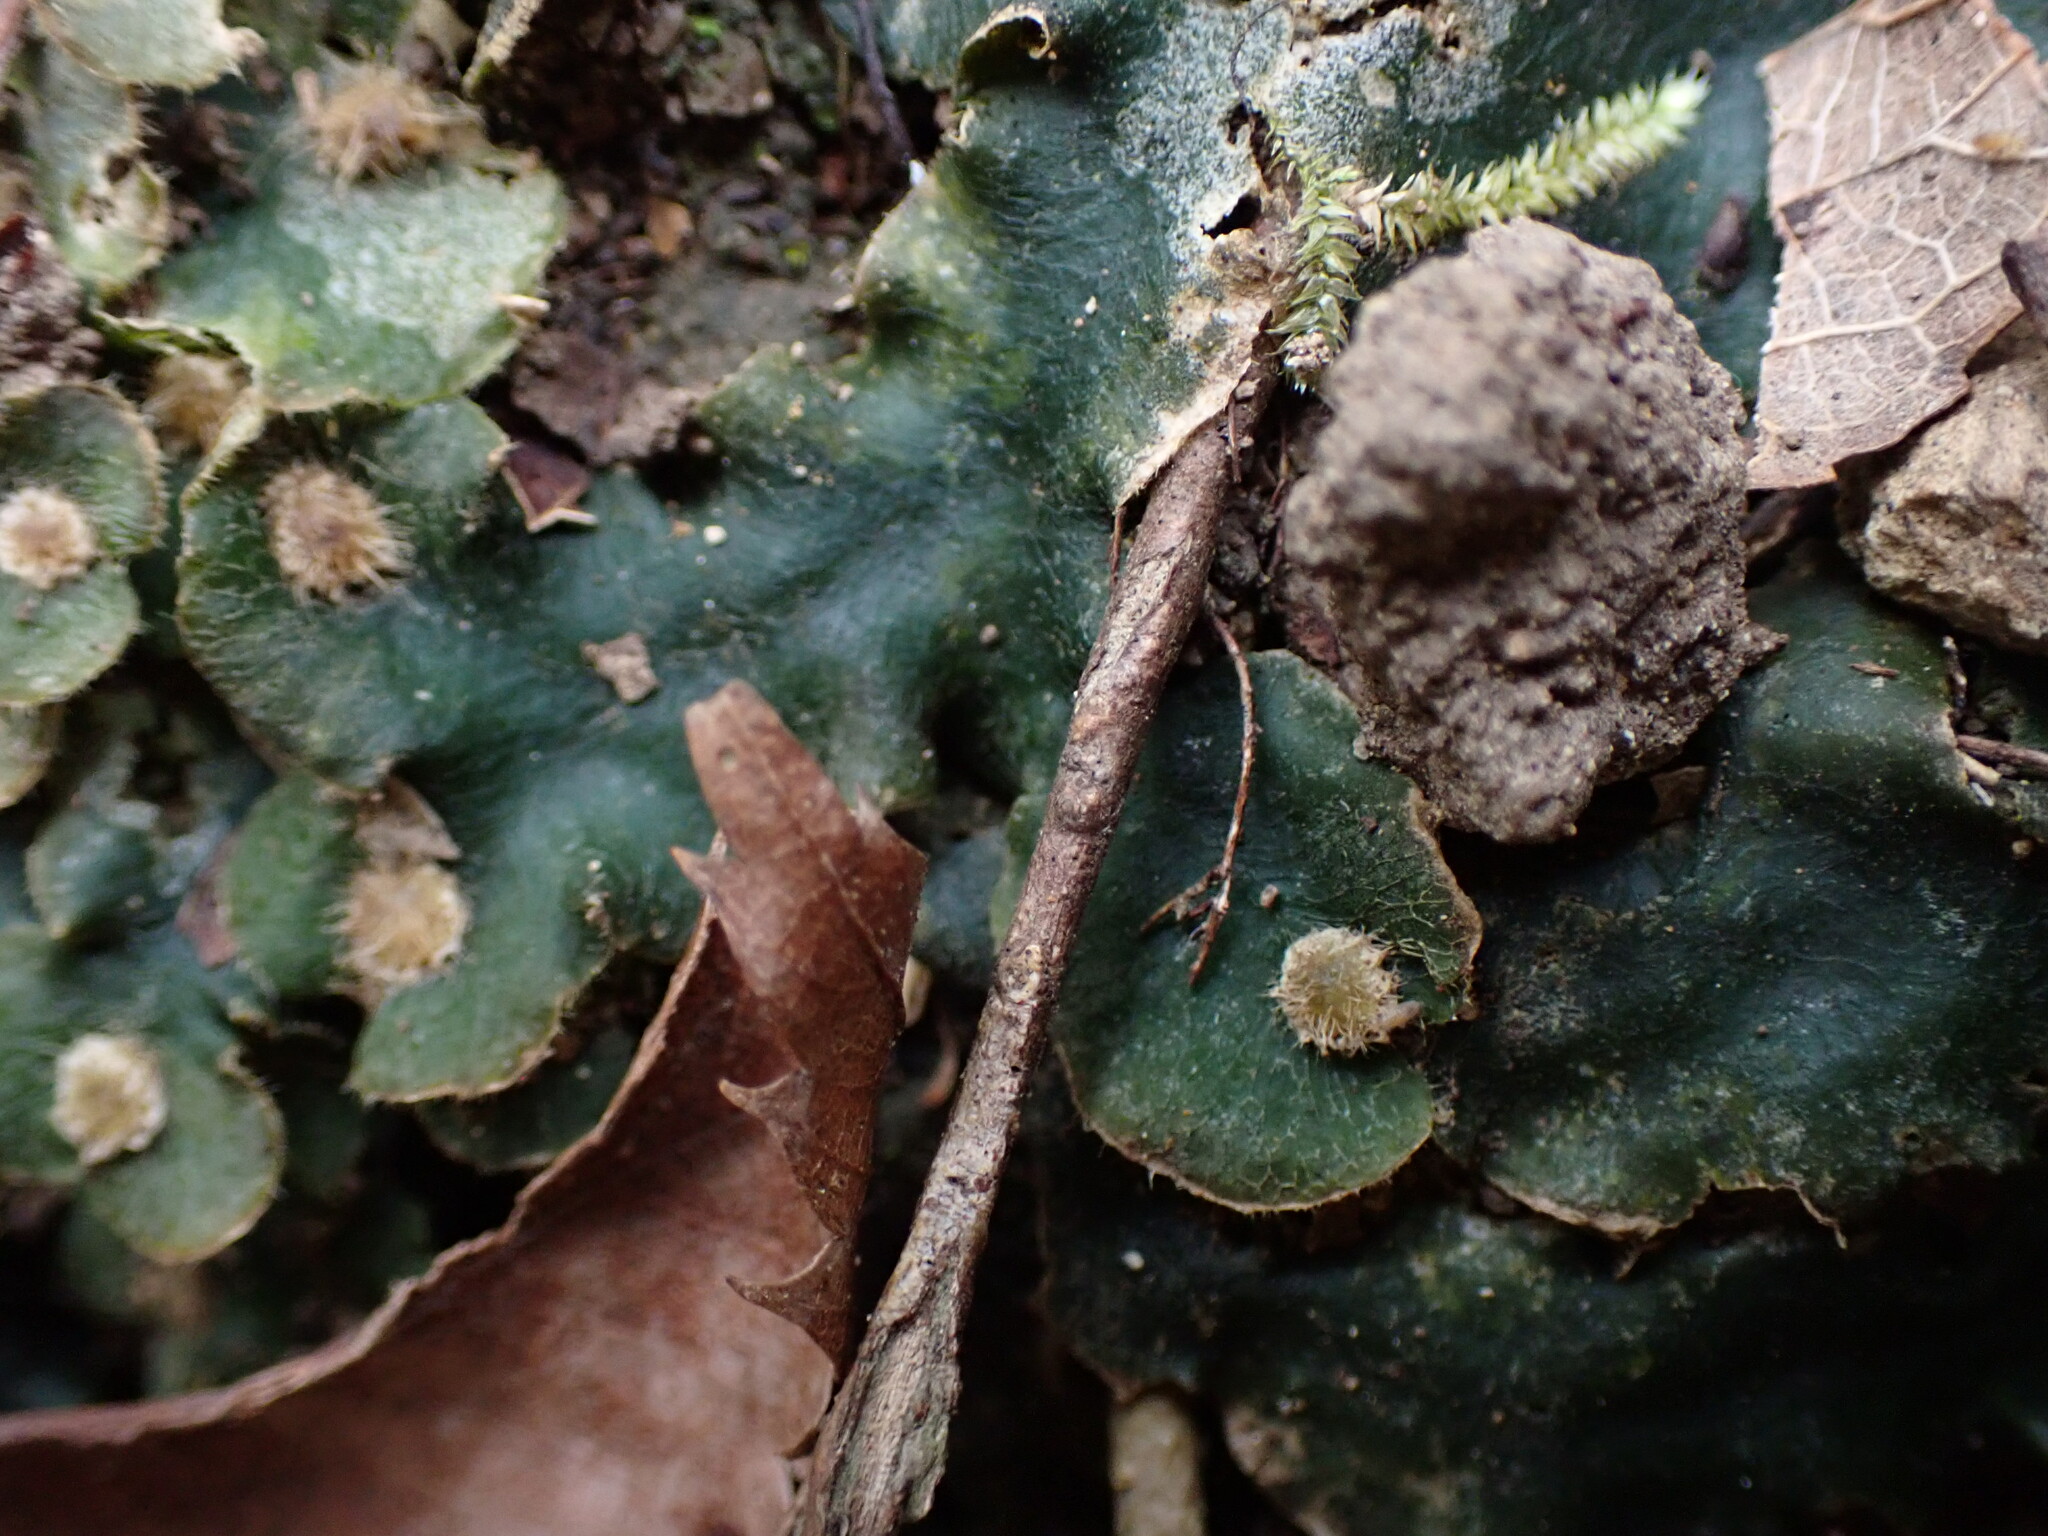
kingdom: Plantae
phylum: Marchantiophyta
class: Marchantiopsida
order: Marchantiales
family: Dumortieraceae
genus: Dumortiera
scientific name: Dumortiera hirsuta
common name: Dumortier's liverwort
